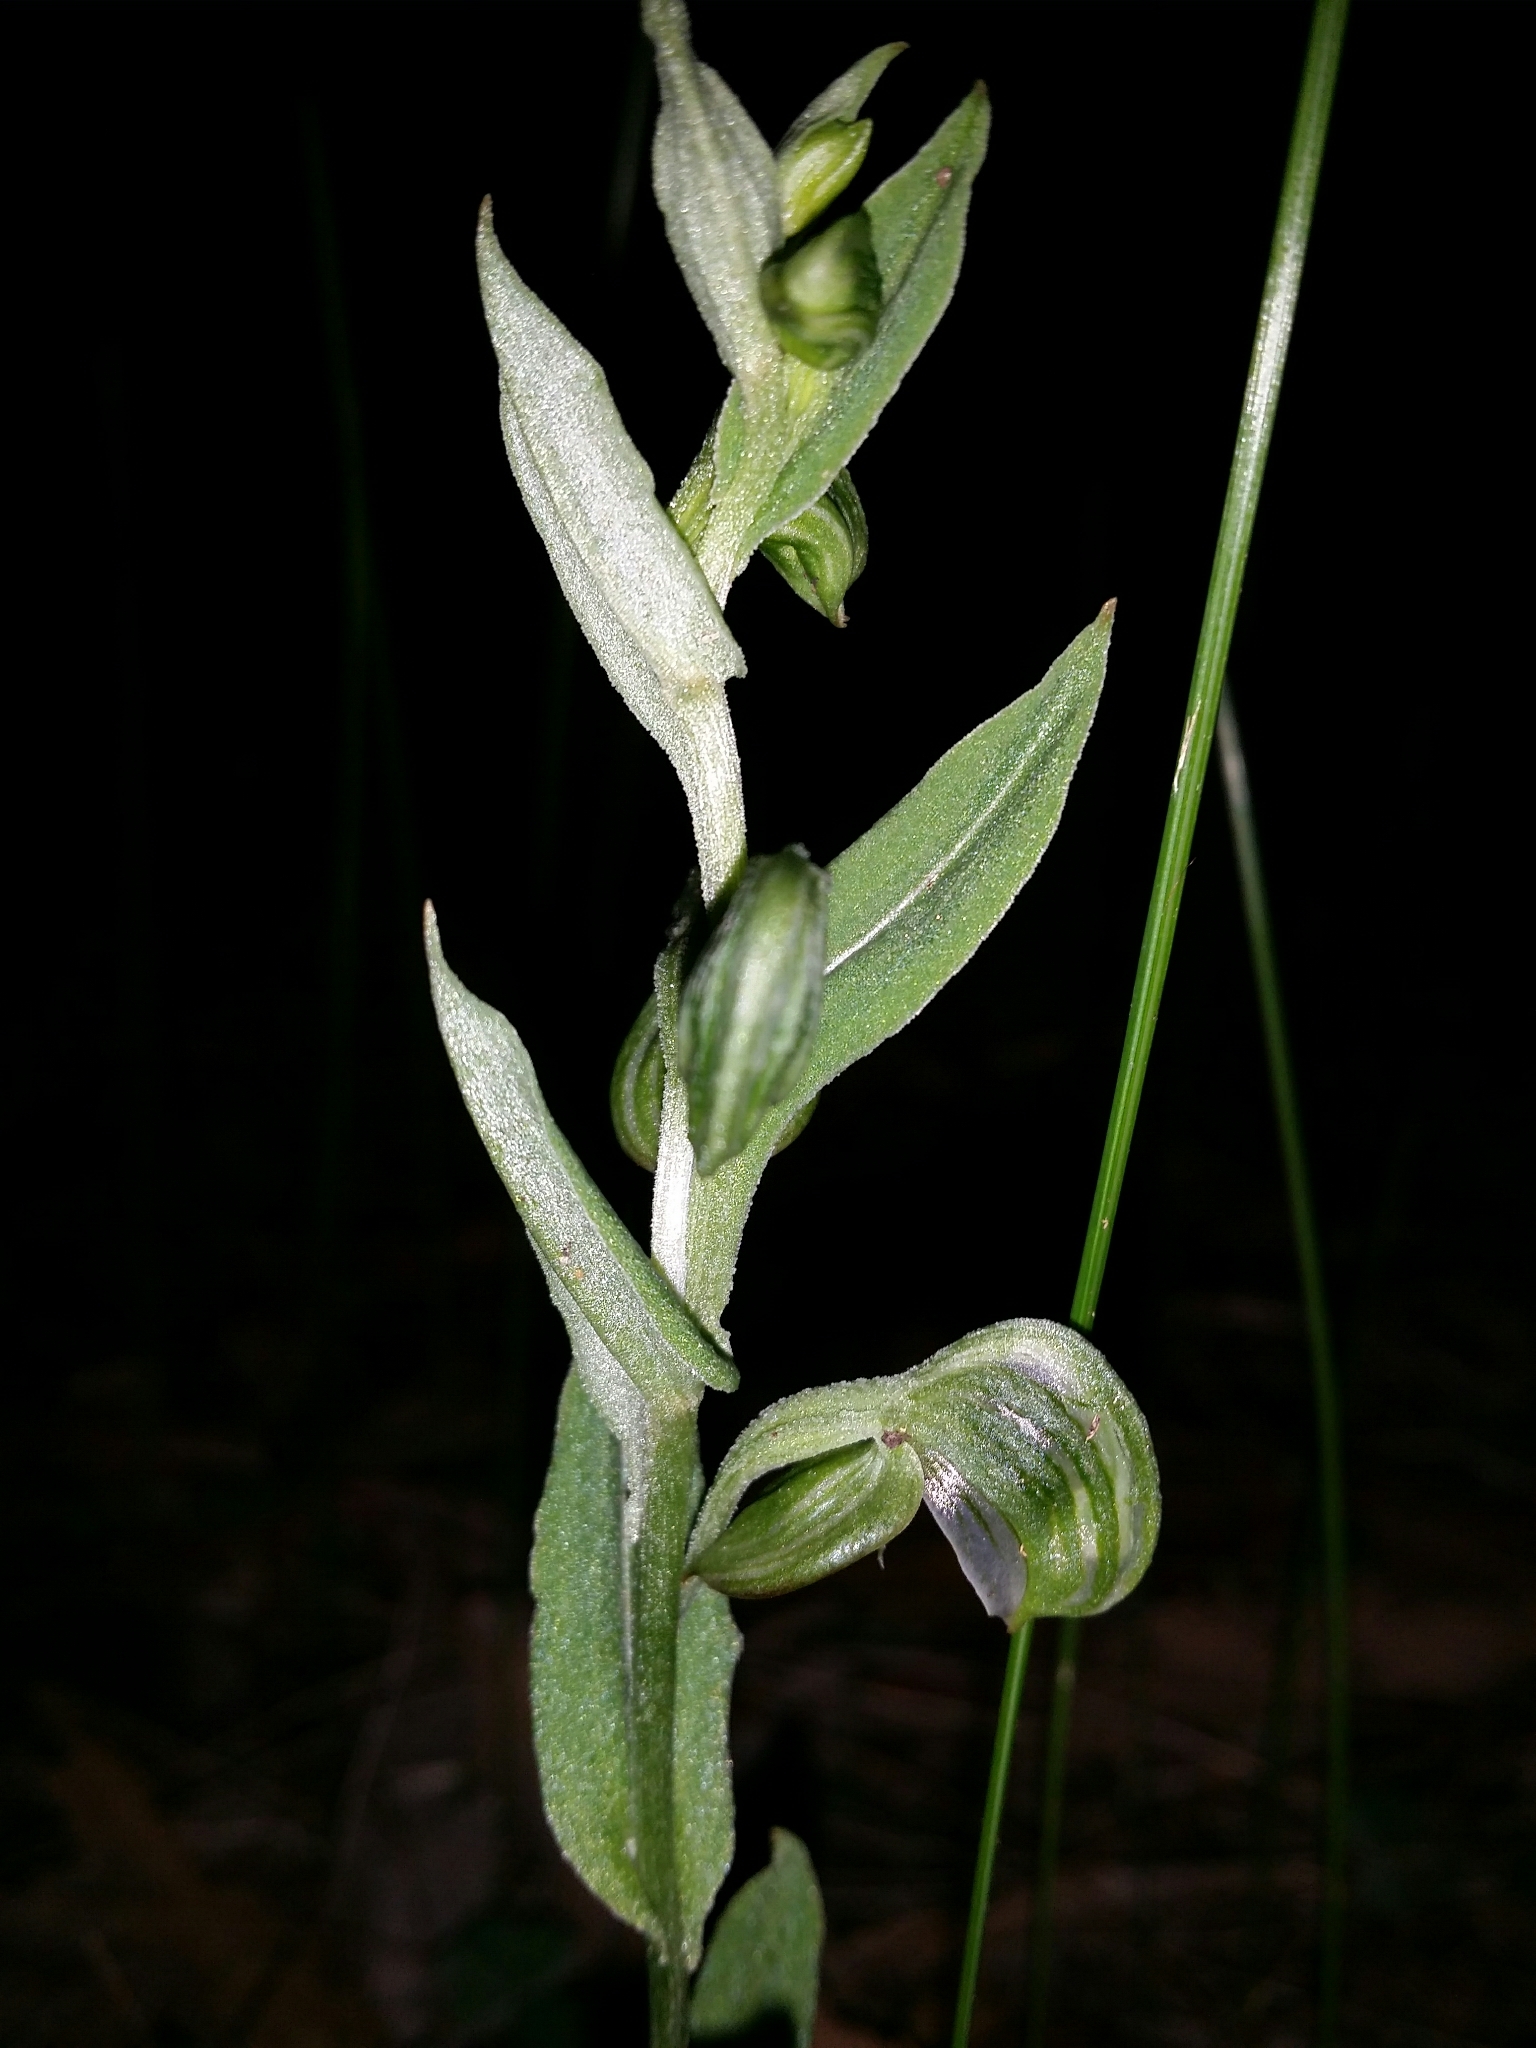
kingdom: Plantae
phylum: Tracheophyta
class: Liliopsida
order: Asparagales
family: Orchidaceae
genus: Pterostylis
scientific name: Pterostylis vittata
